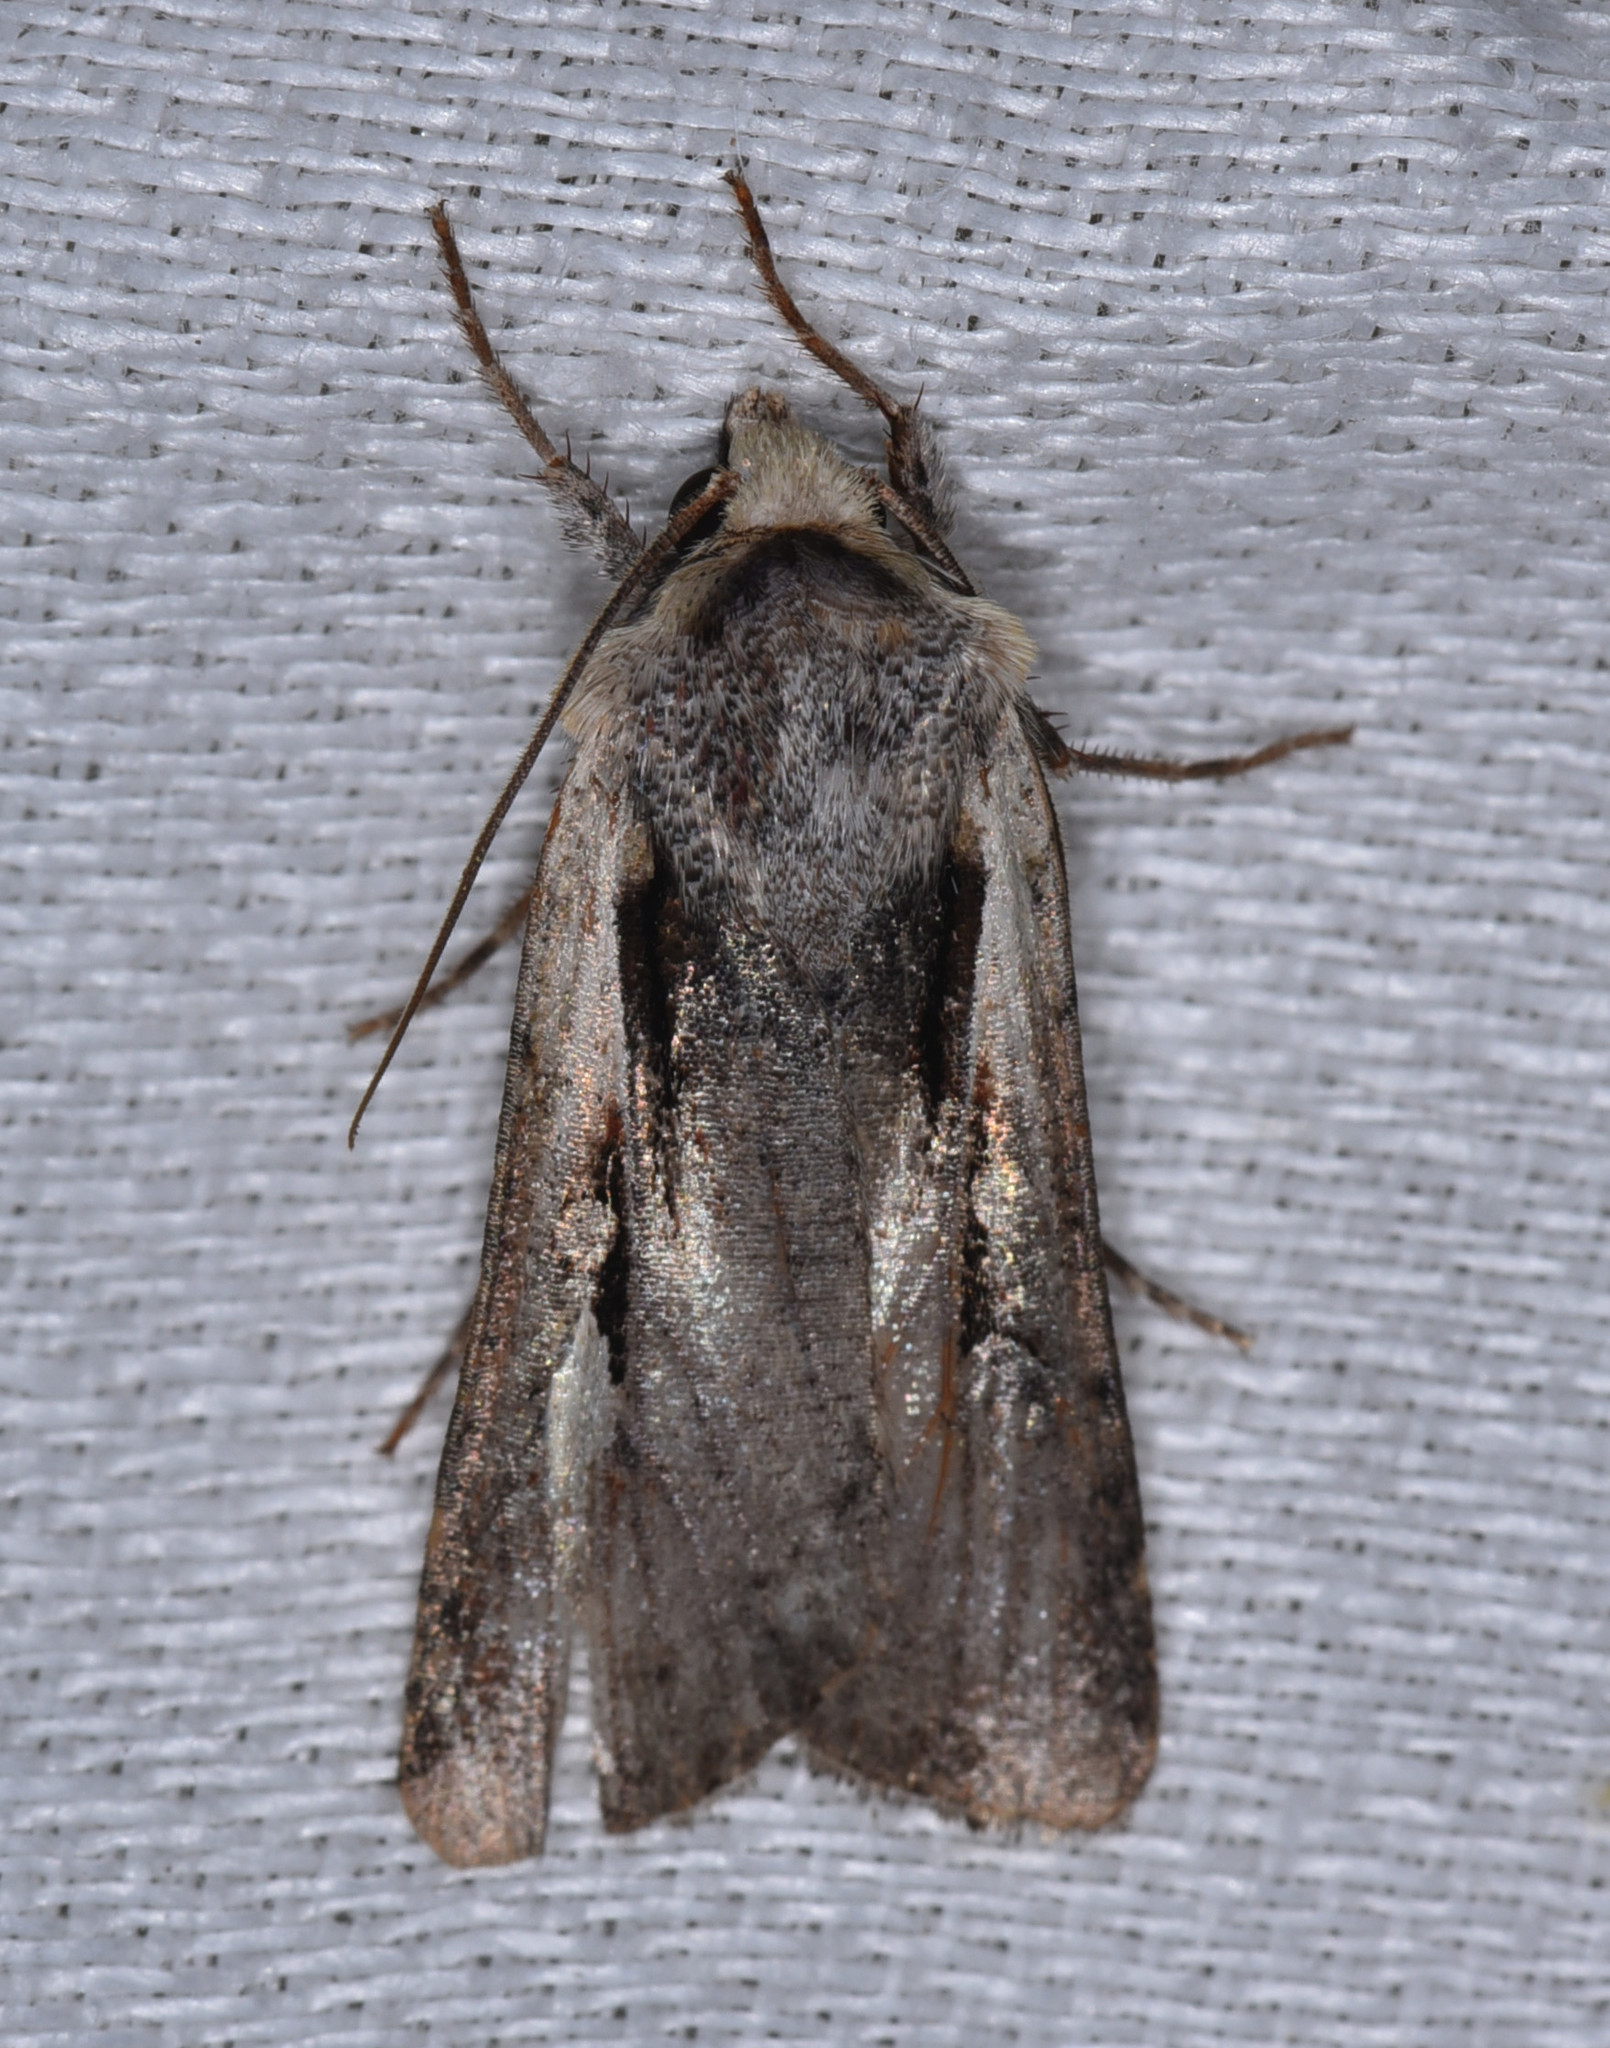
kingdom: Animalia
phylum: Arthropoda
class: Insecta
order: Lepidoptera
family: Noctuidae
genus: Hemieuxoa
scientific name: Hemieuxoa rudens
